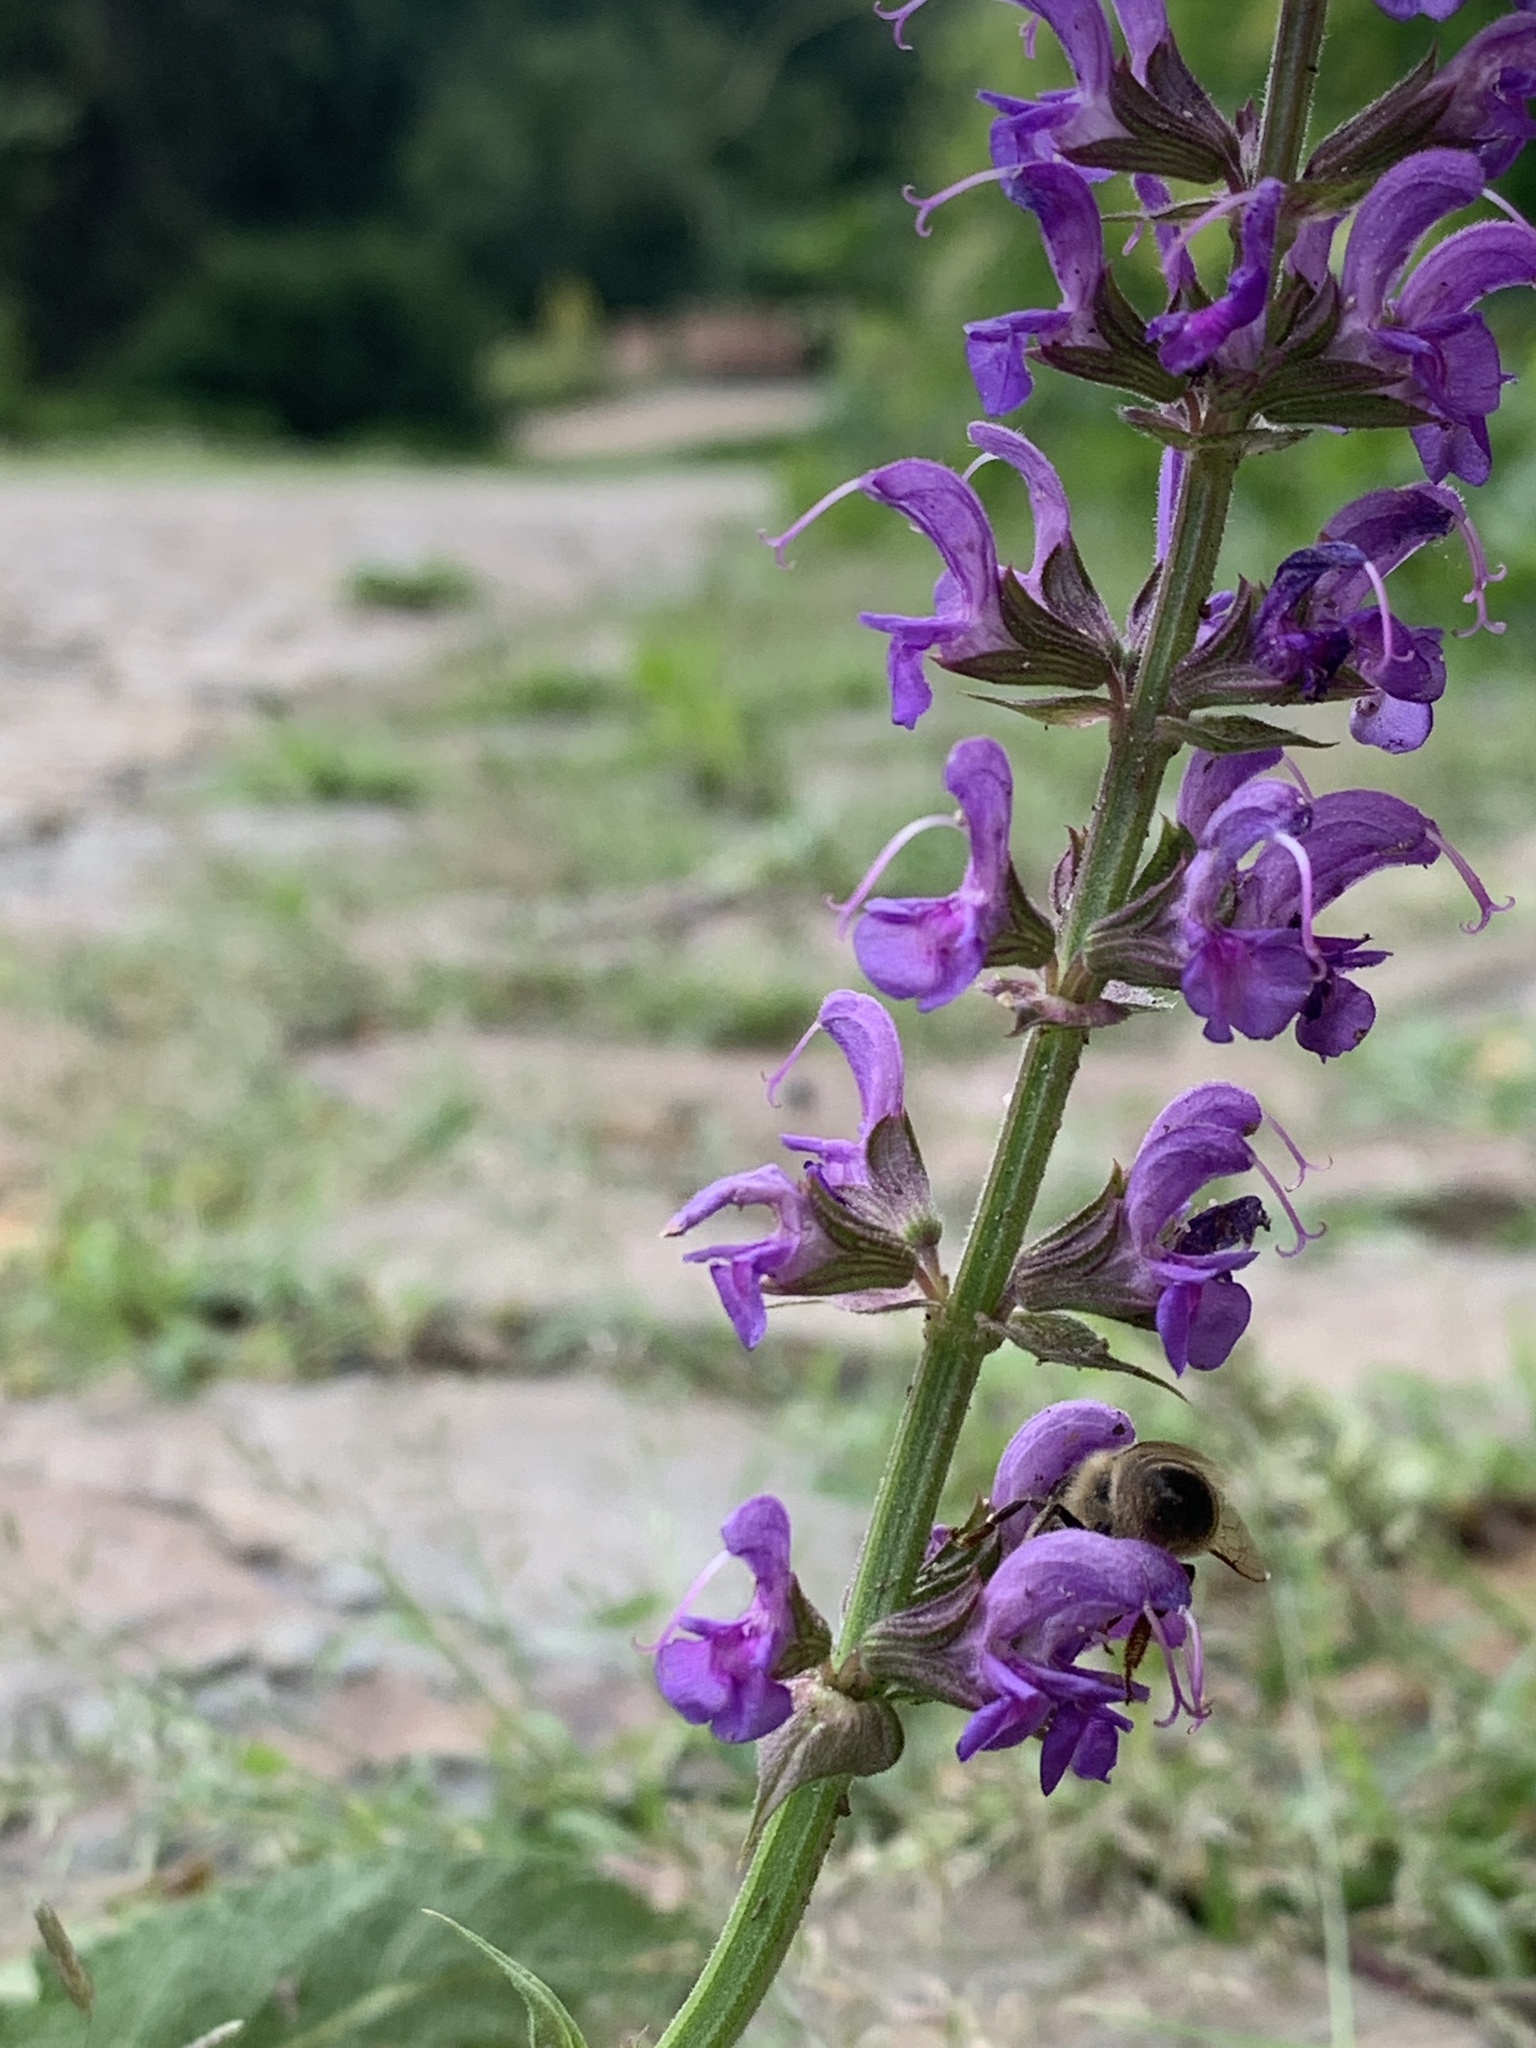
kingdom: Plantae
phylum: Tracheophyta
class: Magnoliopsida
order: Lamiales
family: Lamiaceae
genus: Salvia
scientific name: Salvia pratensis
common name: Meadow sage
